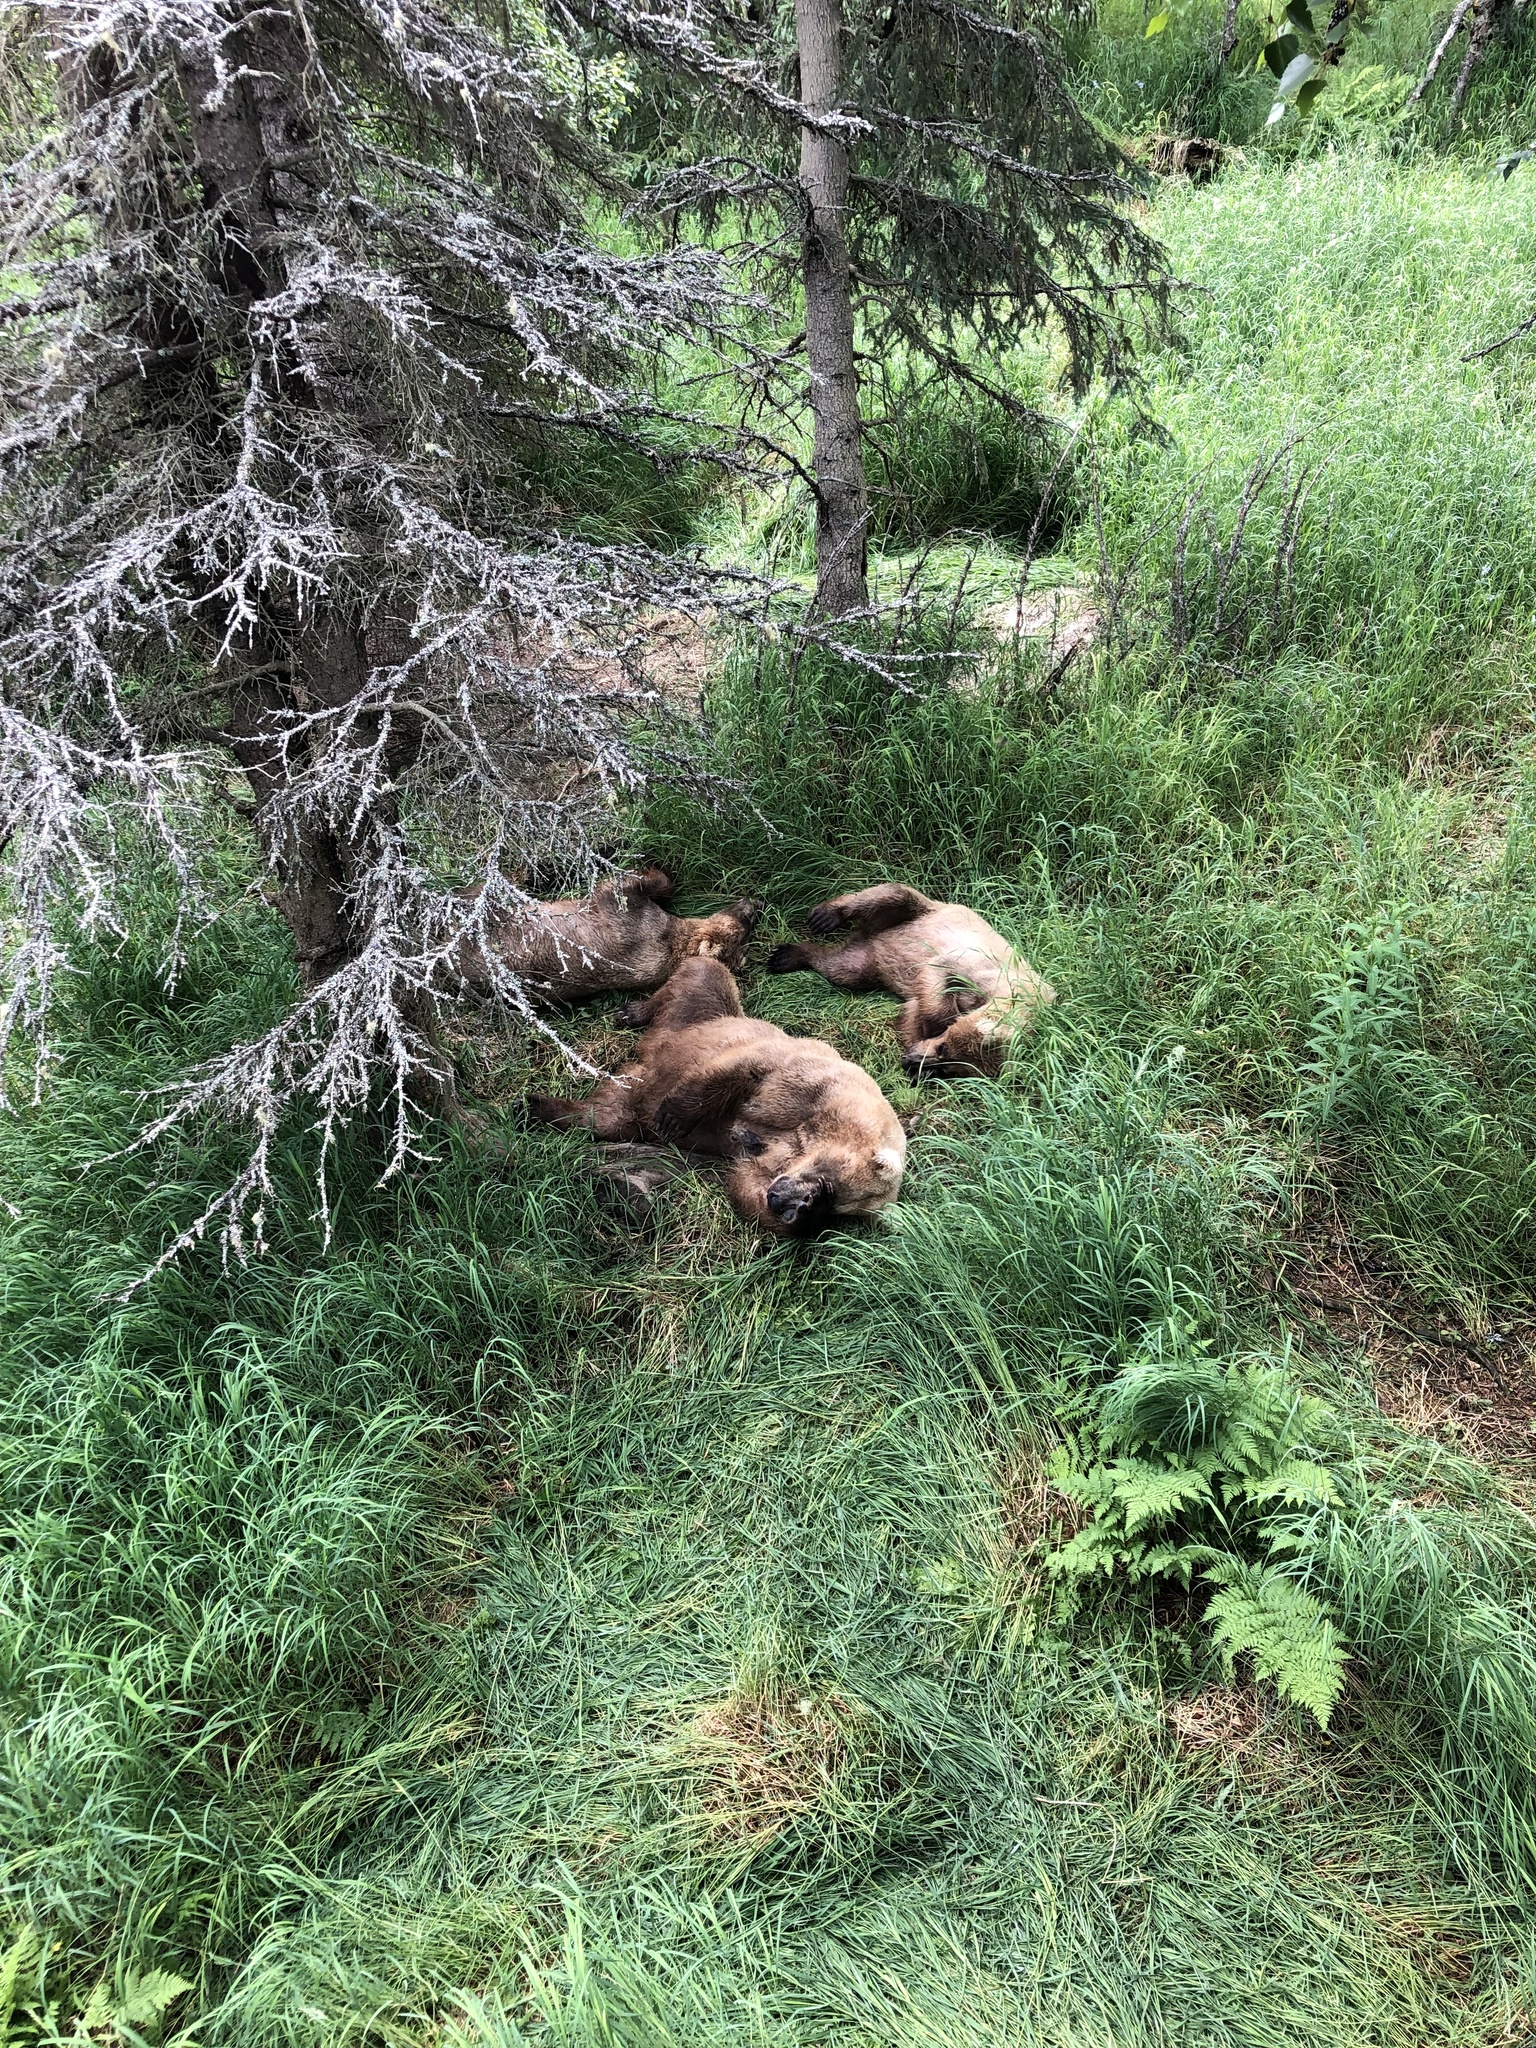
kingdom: Animalia
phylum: Chordata
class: Mammalia
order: Carnivora
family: Ursidae
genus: Ursus
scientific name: Ursus arctos
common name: Brown bear
